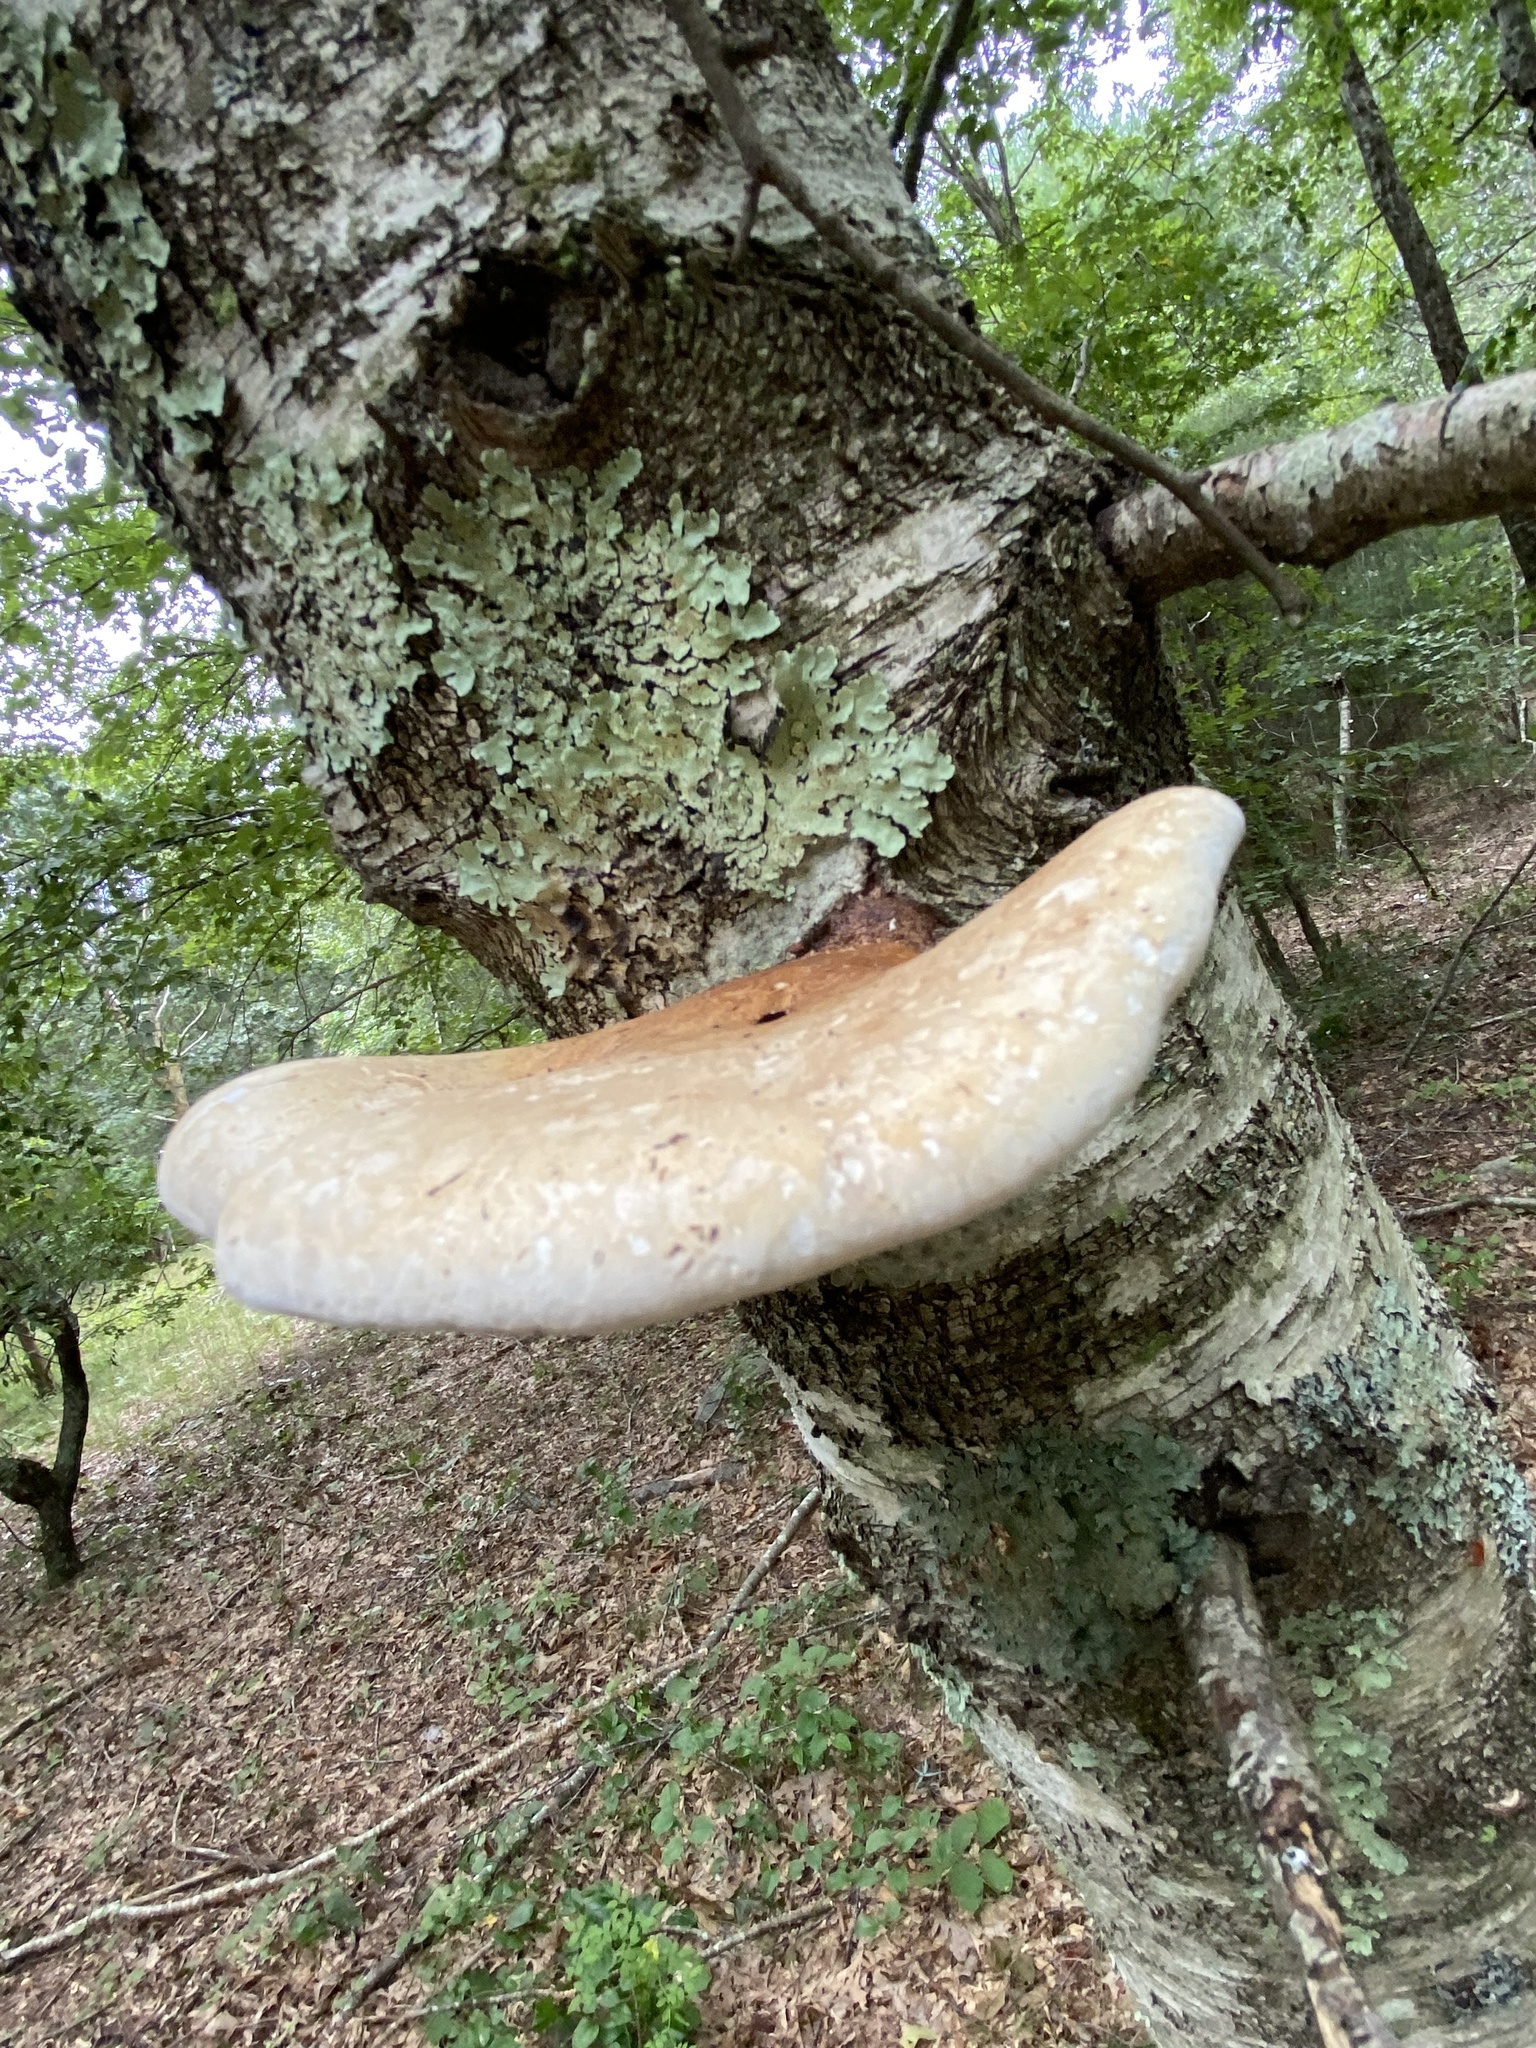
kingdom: Fungi
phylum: Basidiomycota
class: Agaricomycetes
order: Polyporales
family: Fomitopsidaceae
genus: Fomitopsis
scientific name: Fomitopsis betulina
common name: Birch polypore
